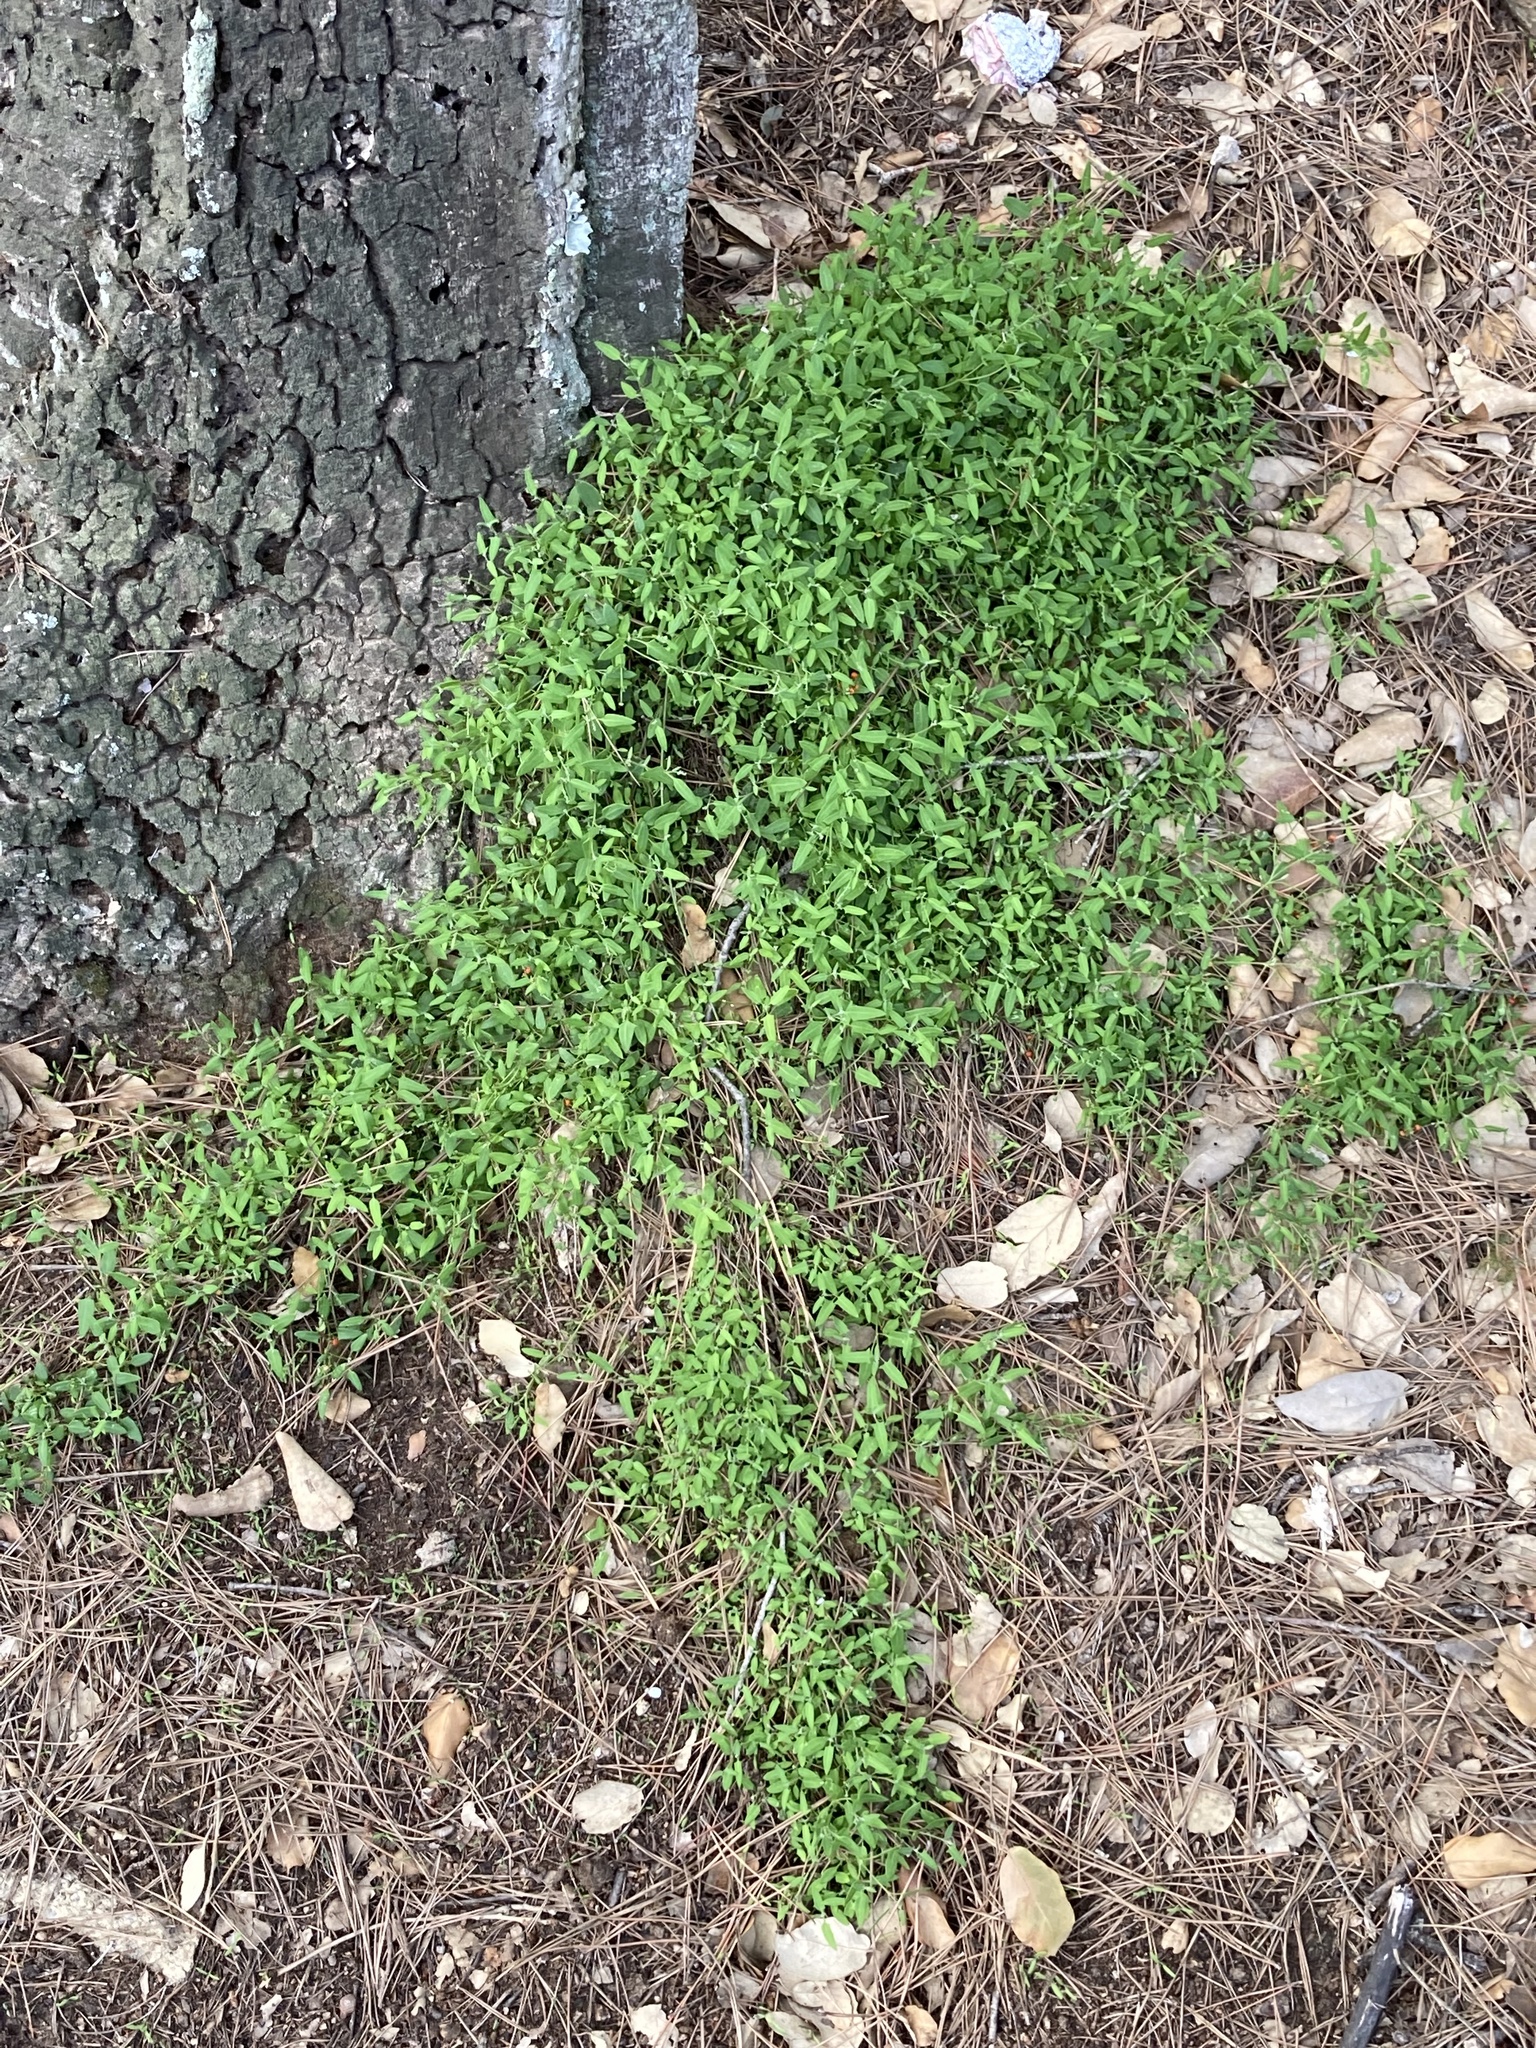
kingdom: Plantae
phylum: Tracheophyta
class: Magnoliopsida
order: Caryophyllales
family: Amaranthaceae
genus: Chenopodium
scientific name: Chenopodium nutans
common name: Climbing-saltbush
